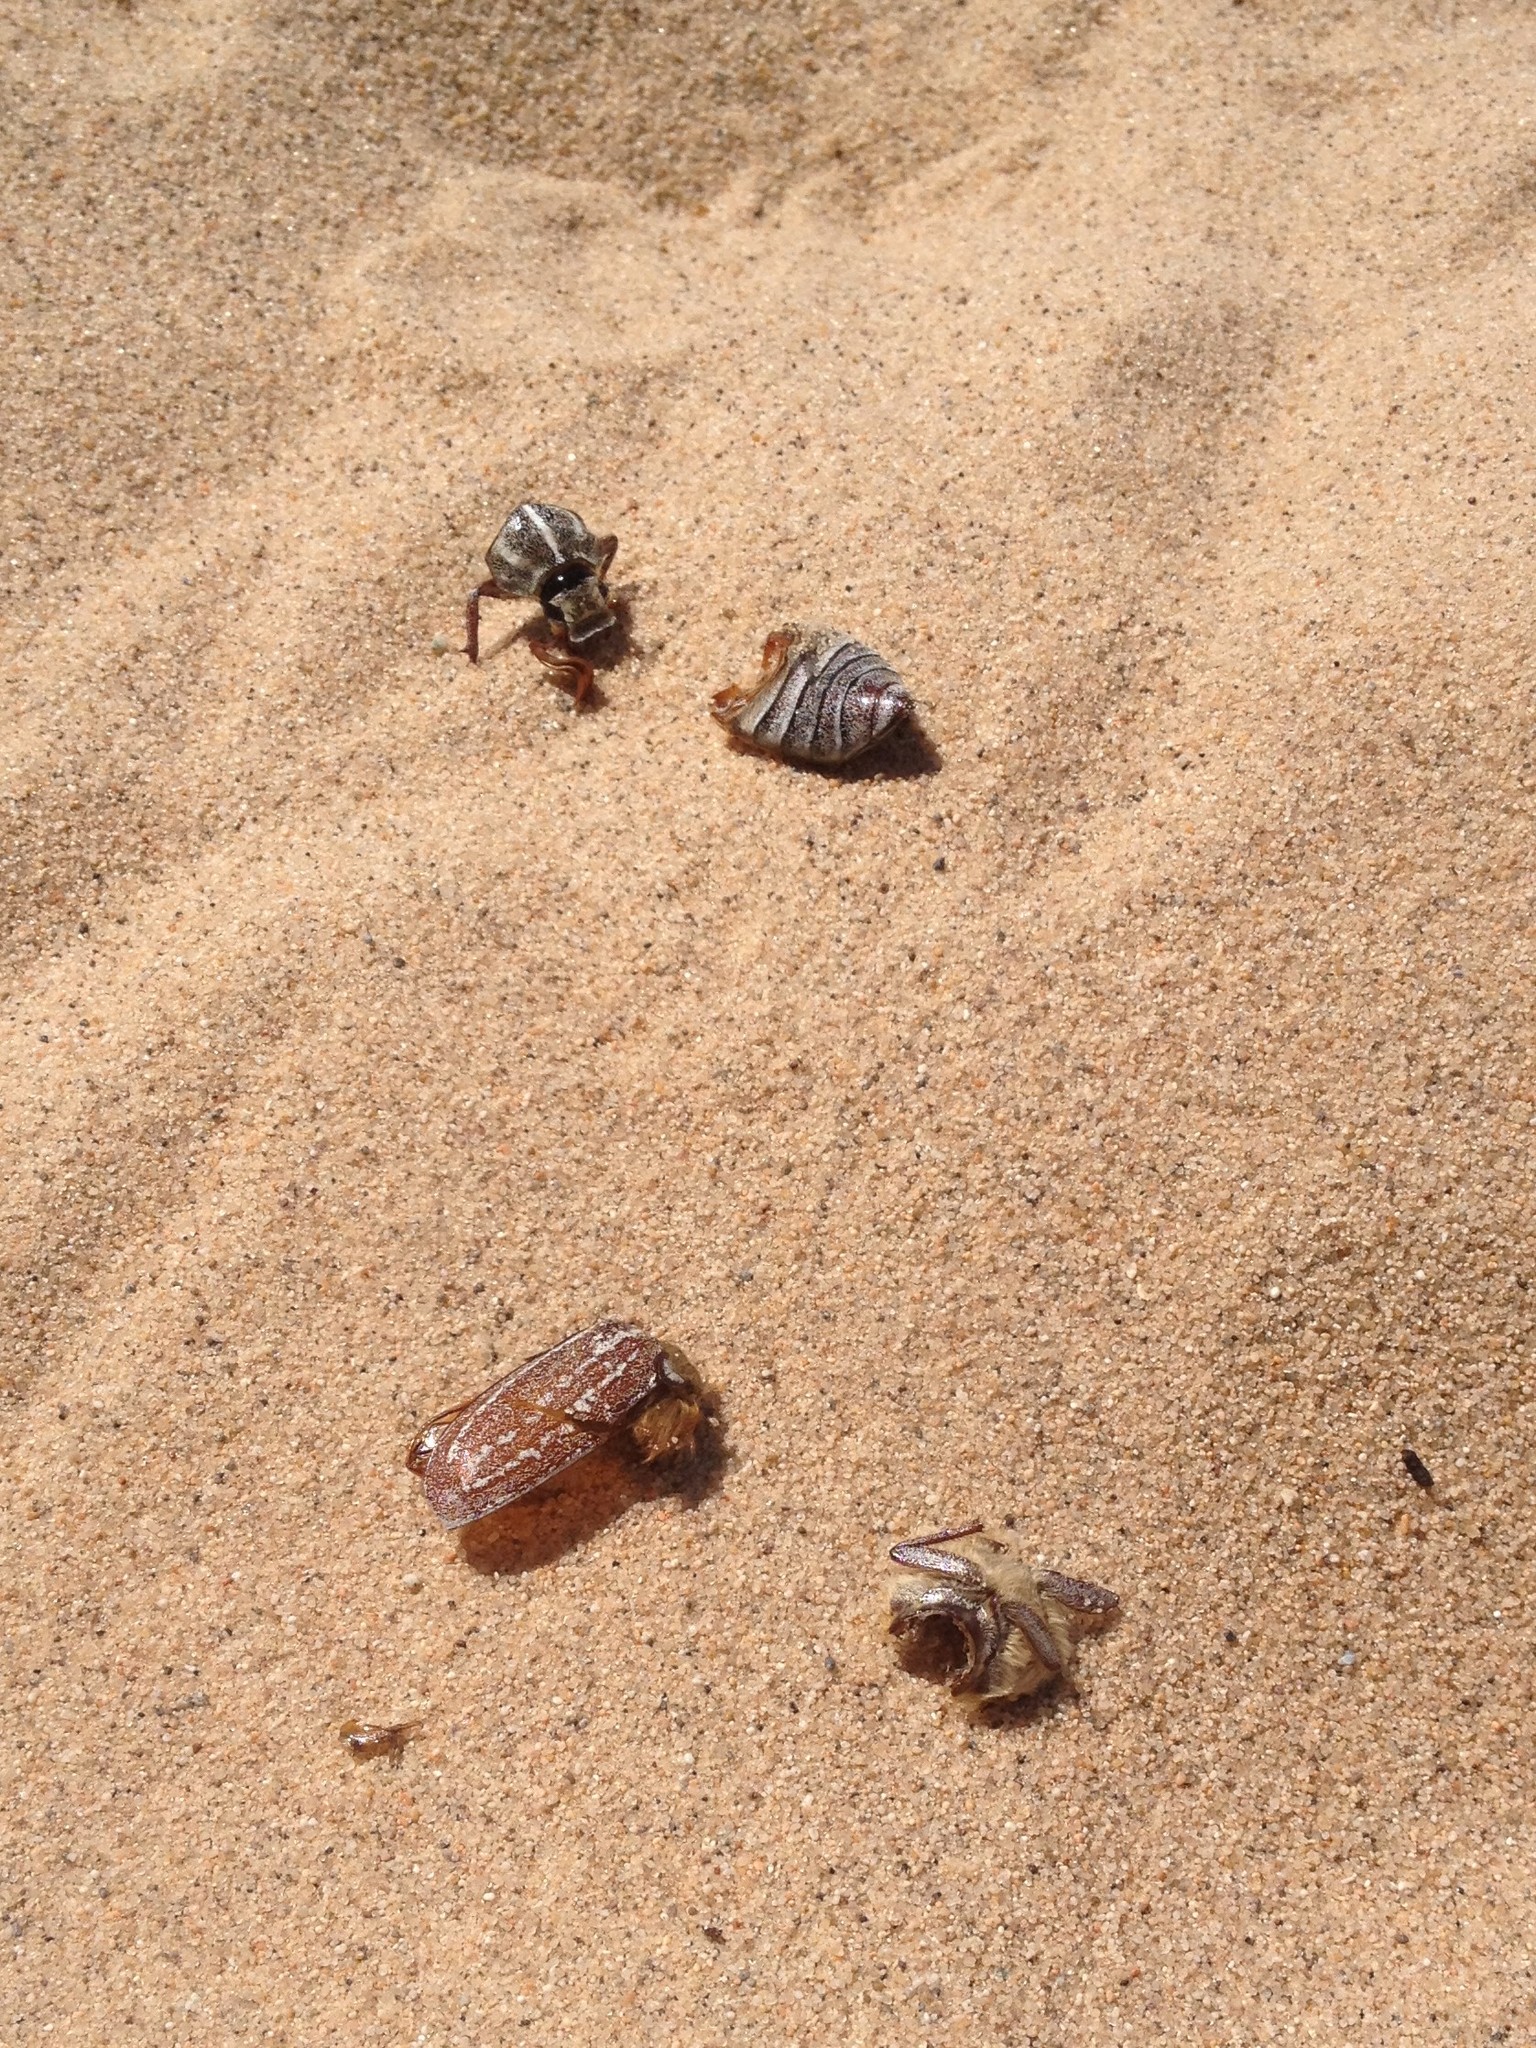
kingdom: Animalia
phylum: Arthropoda
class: Insecta
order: Coleoptera
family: Scarabaeidae
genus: Polyphylla
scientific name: Polyphylla aeolus
